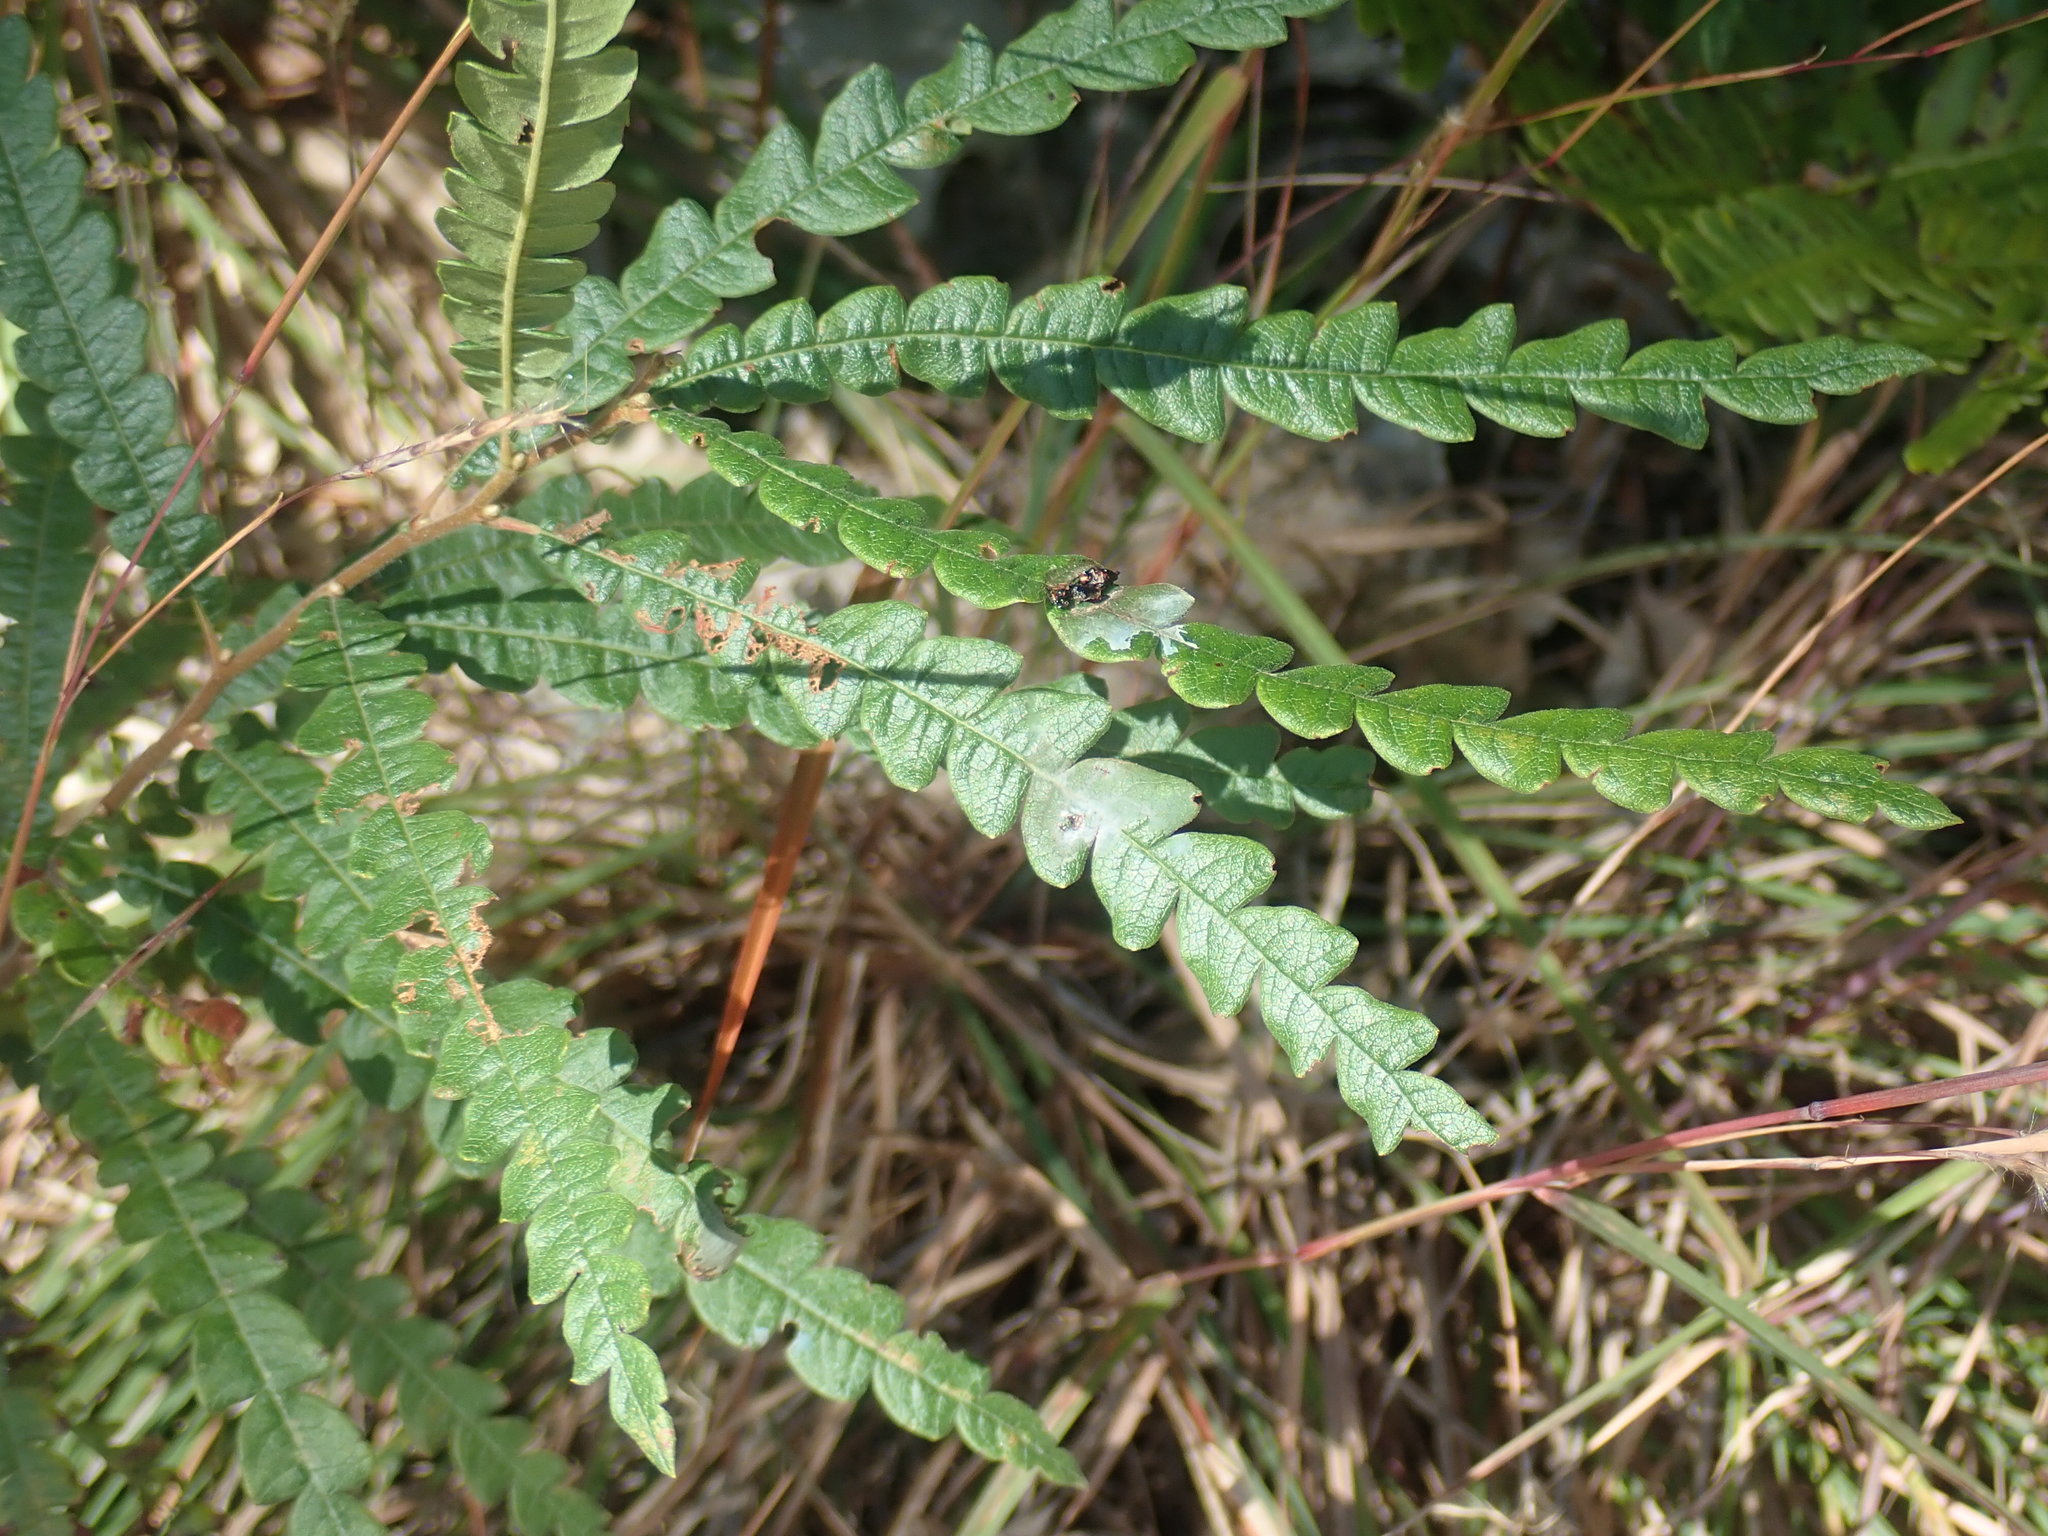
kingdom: Plantae
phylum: Tracheophyta
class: Magnoliopsida
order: Fagales
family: Myricaceae
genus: Comptonia
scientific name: Comptonia peregrina
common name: Sweet-fern
